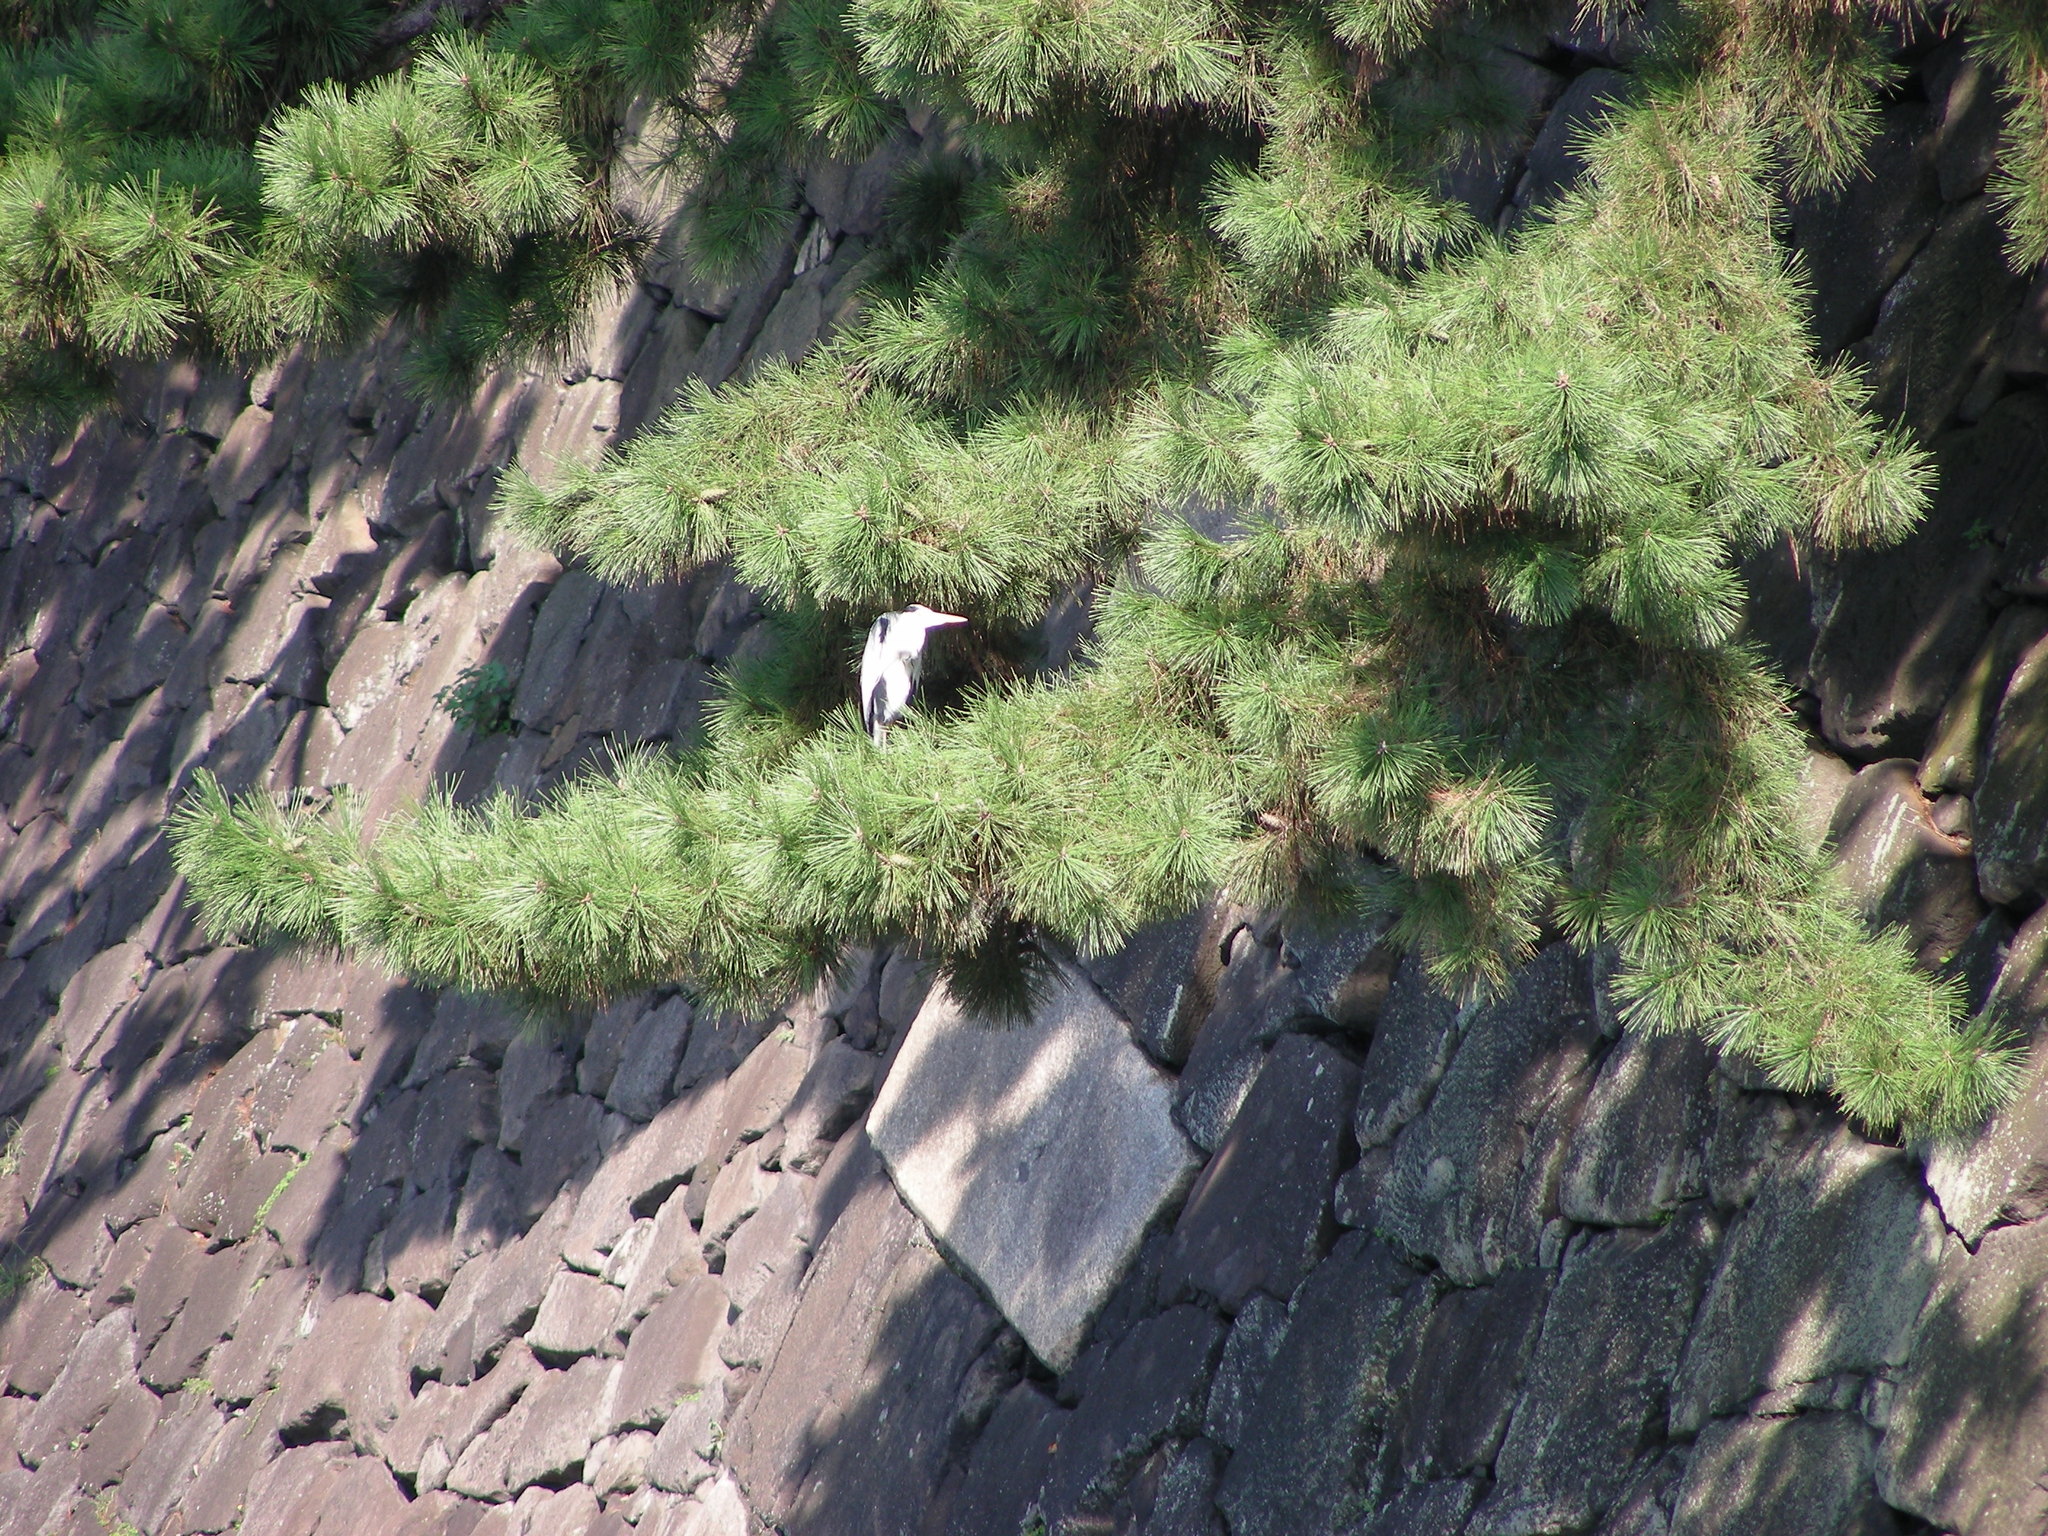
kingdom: Animalia
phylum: Chordata
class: Aves
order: Pelecaniformes
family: Ardeidae
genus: Ardea
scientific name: Ardea cinerea
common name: Grey heron
